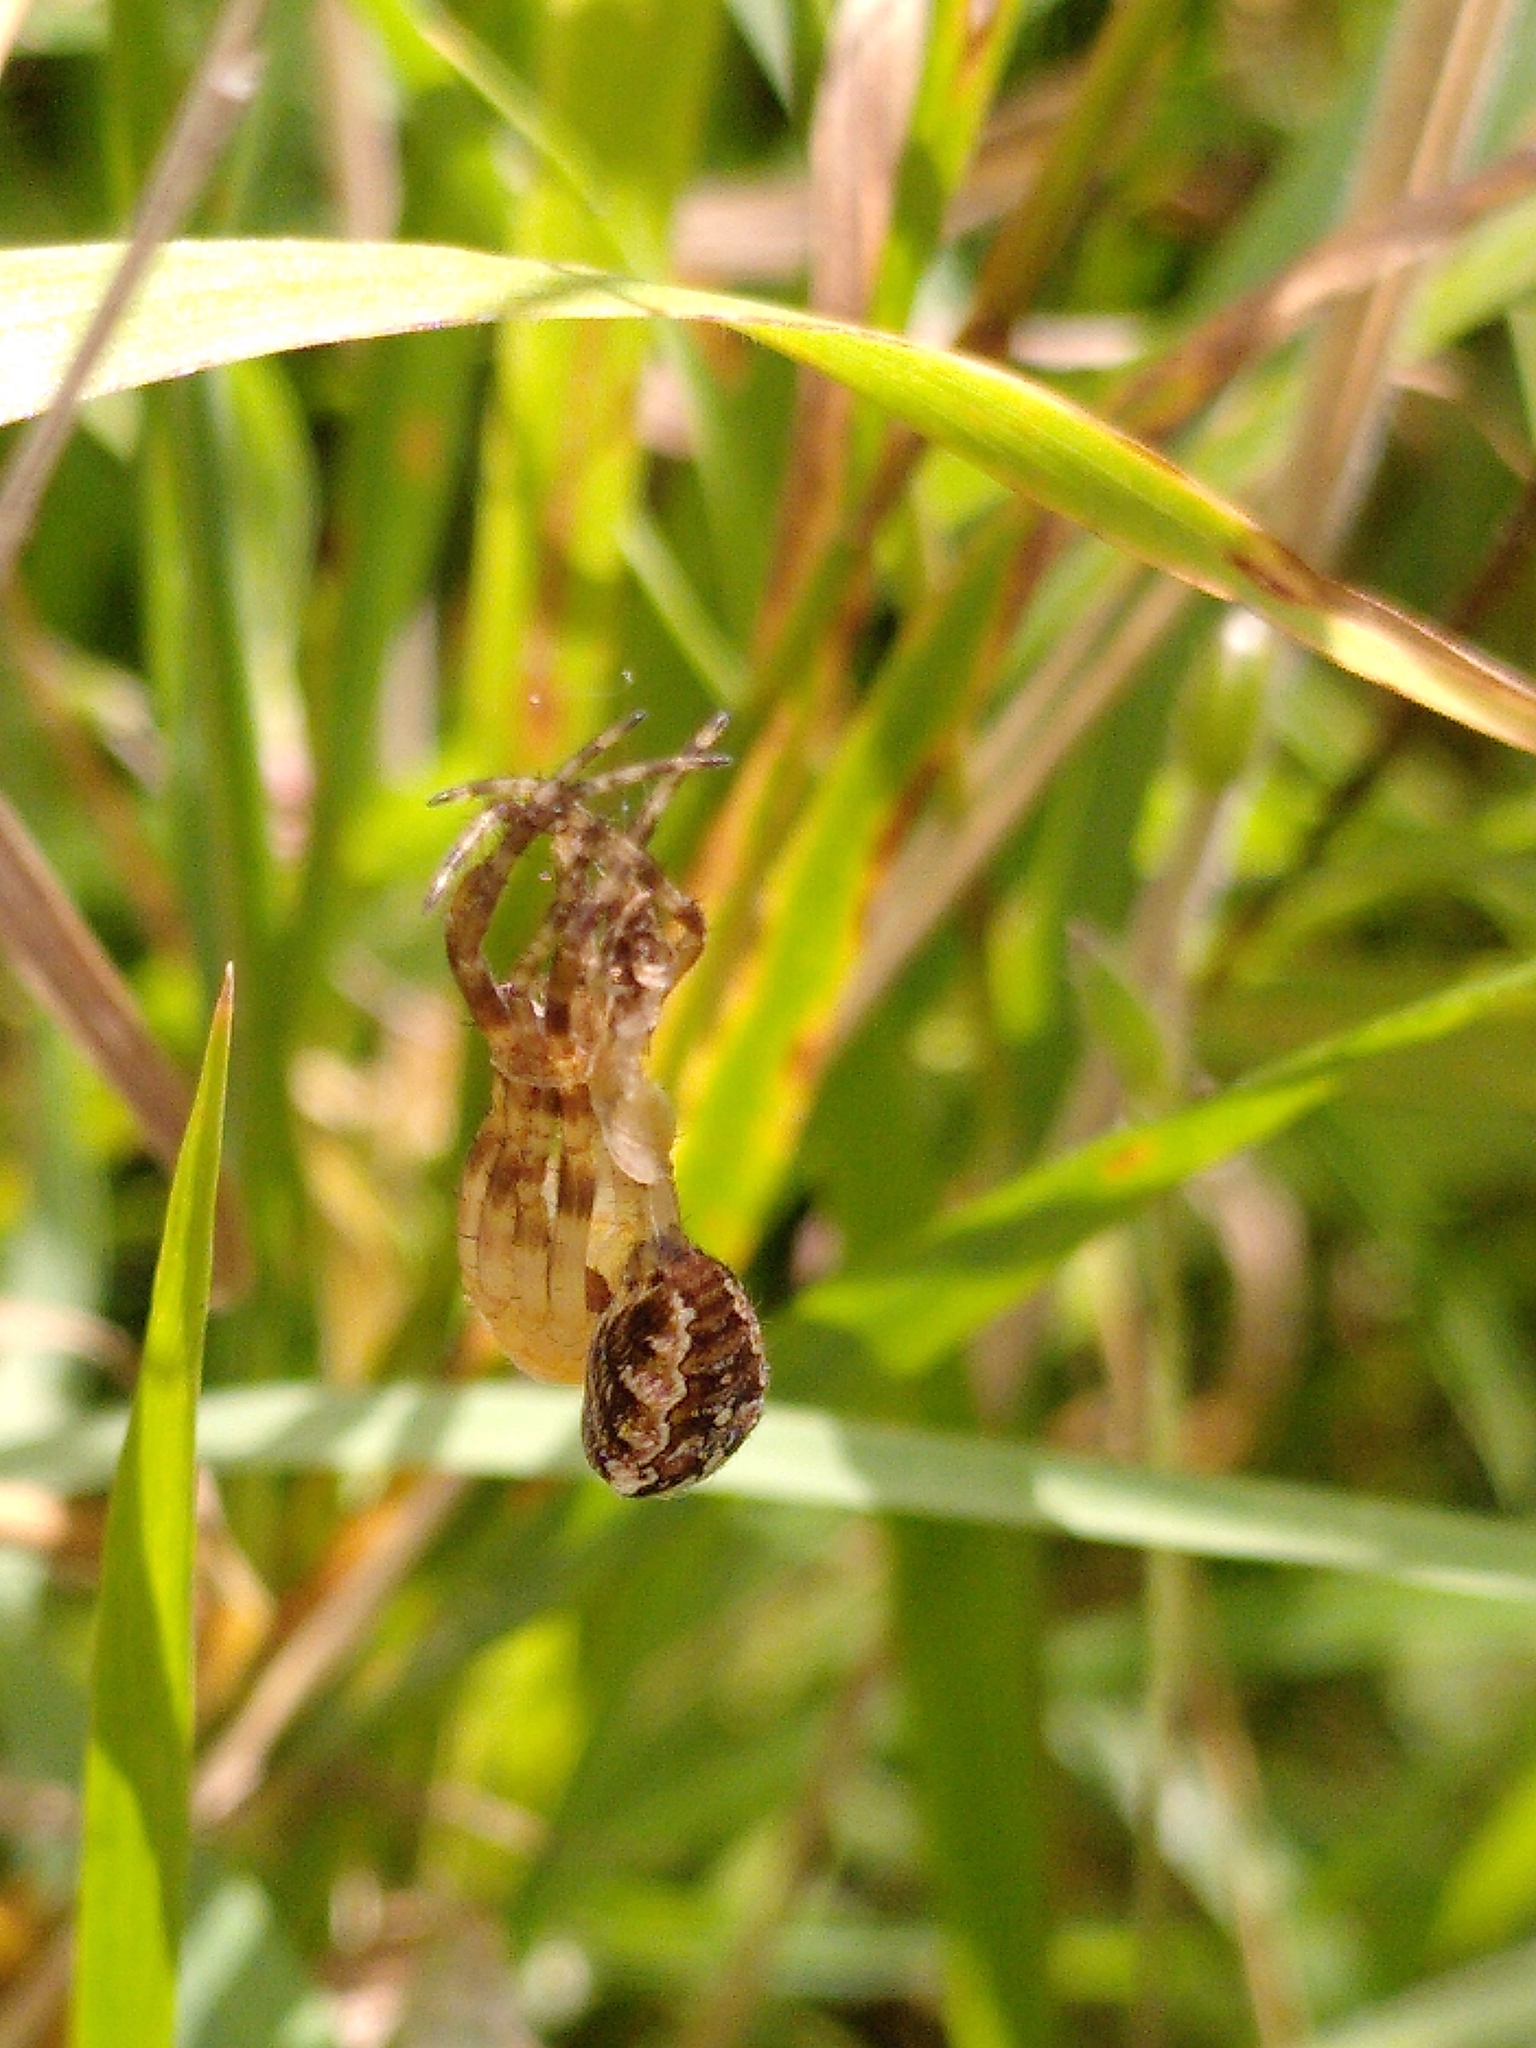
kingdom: Animalia
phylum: Arthropoda
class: Arachnida
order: Araneae
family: Araneidae
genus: Araneus
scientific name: Araneus diadematus
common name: Cross orbweaver
